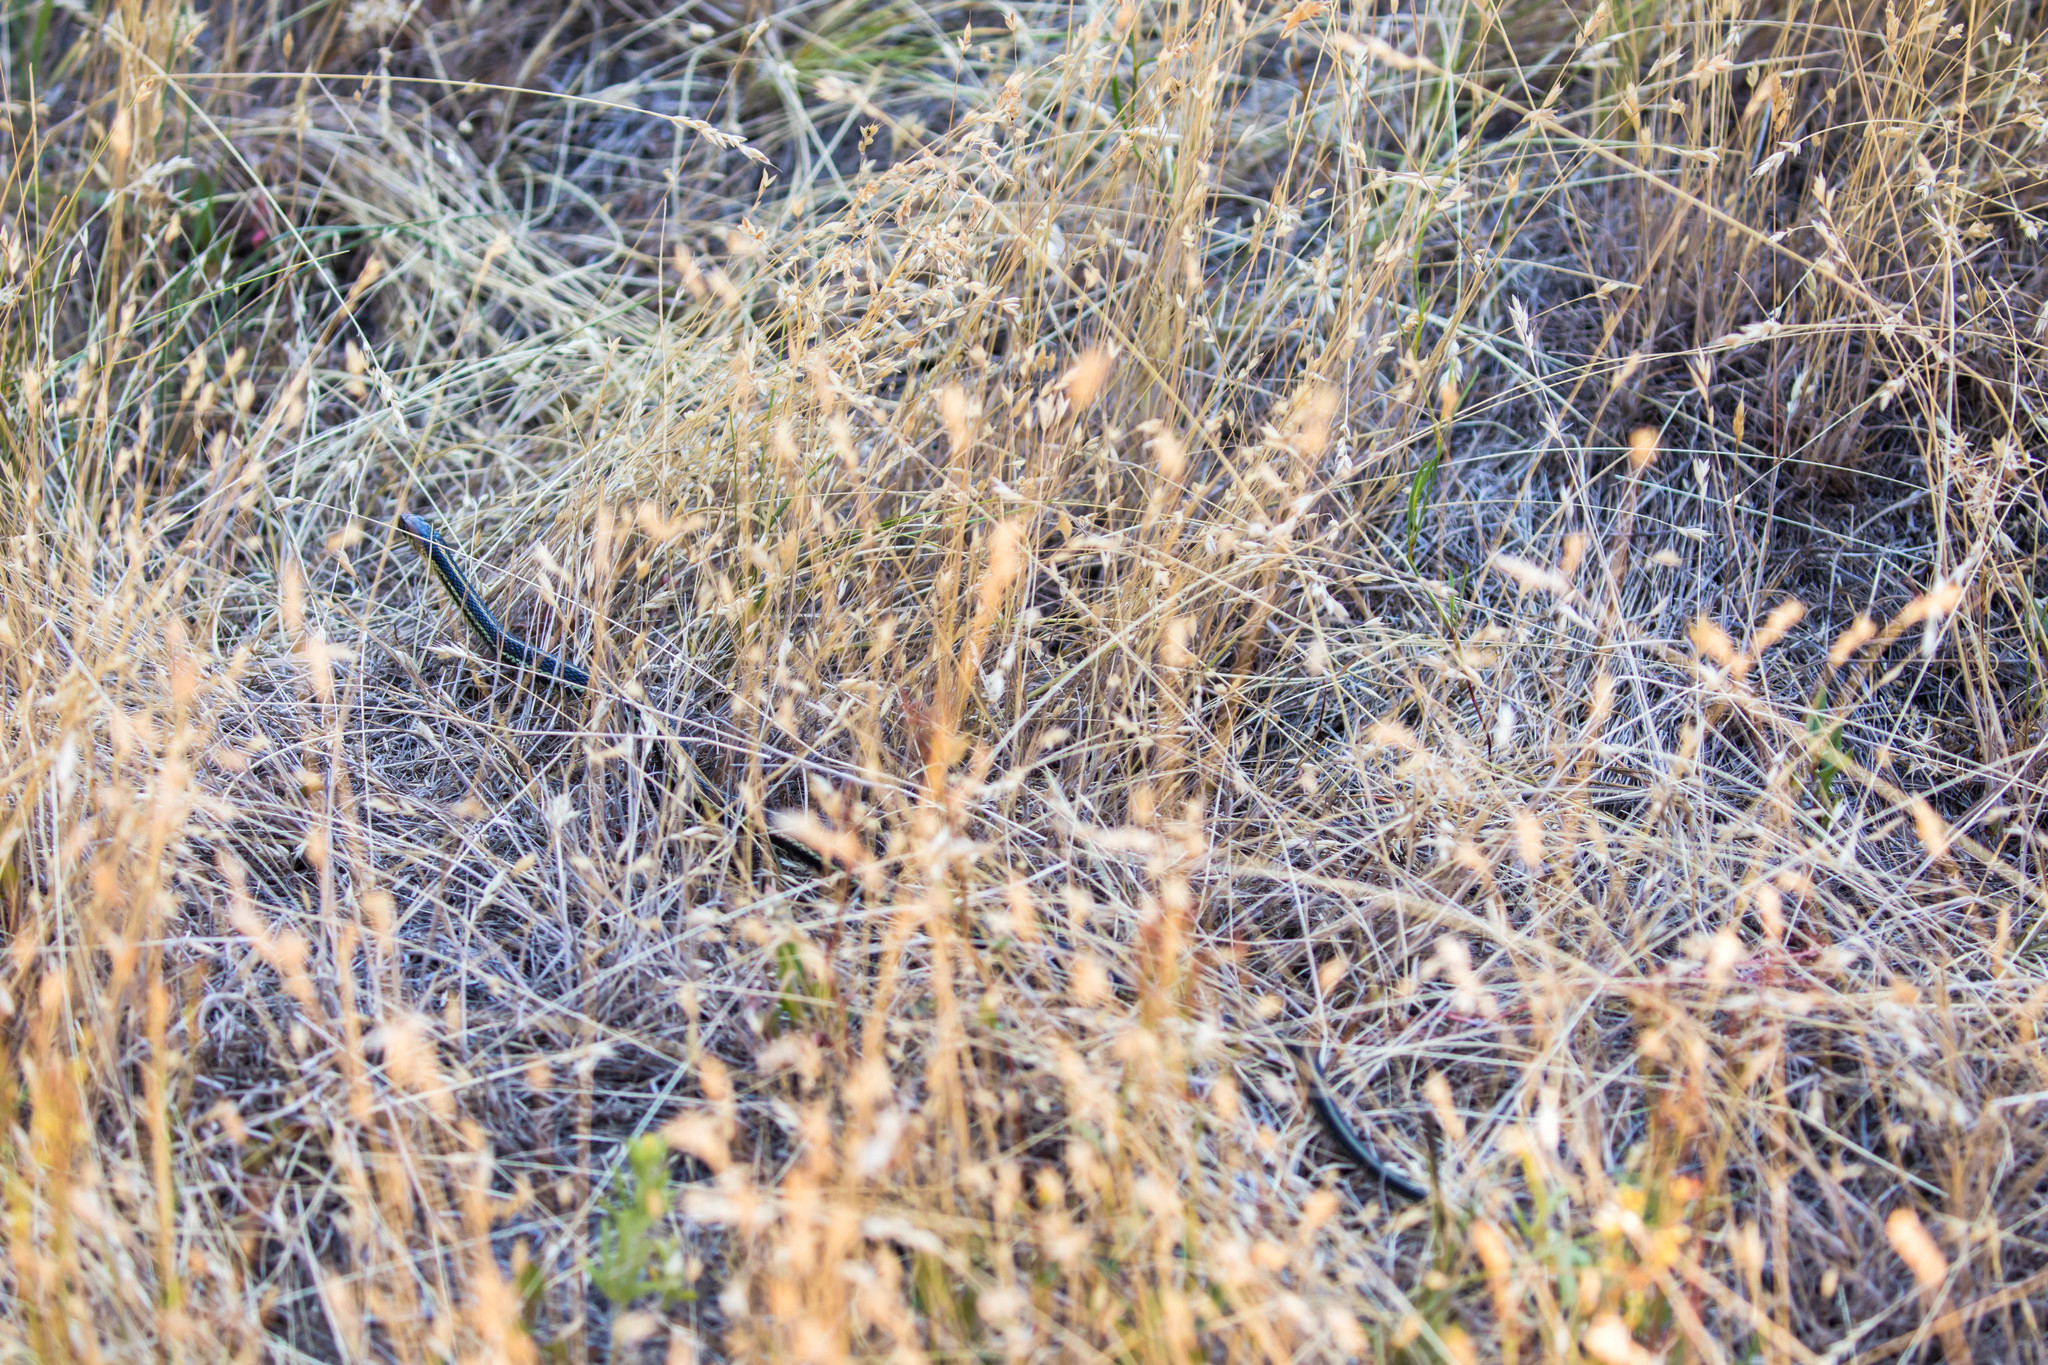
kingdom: Animalia
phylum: Chordata
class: Squamata
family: Colubridae
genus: Thamnophis
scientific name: Thamnophis sirtalis
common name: Common garter snake
